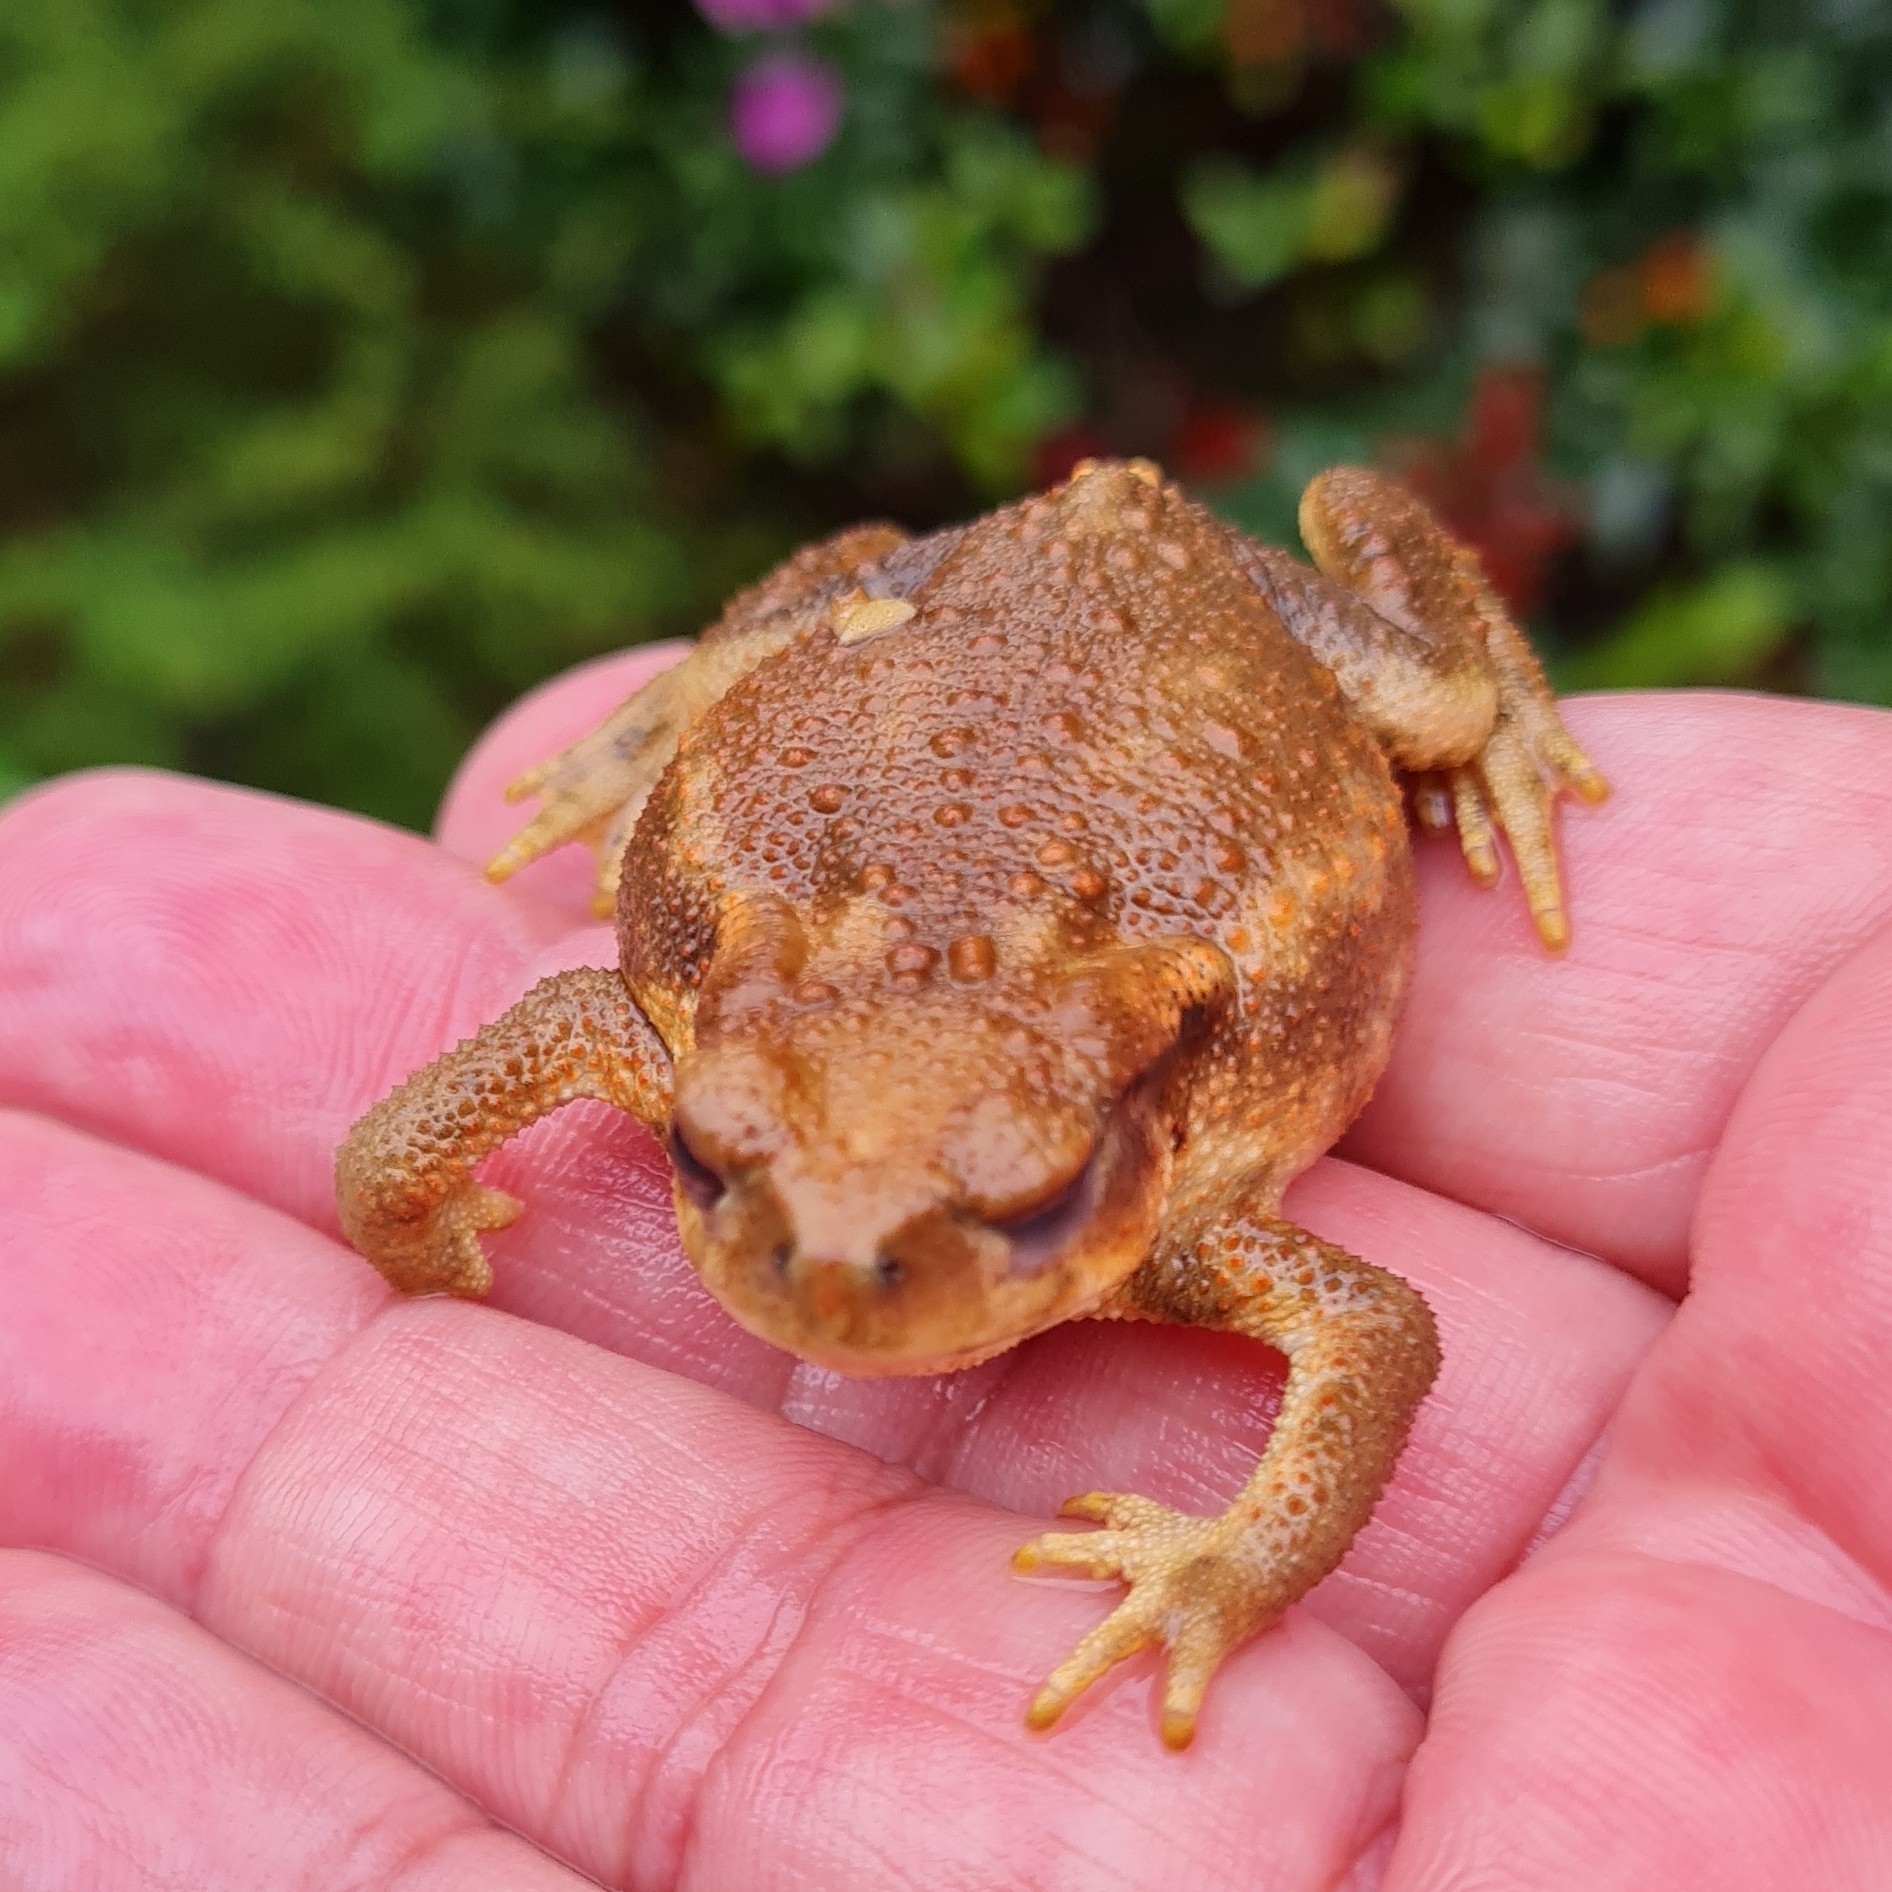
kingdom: Animalia
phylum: Chordata
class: Amphibia
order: Anura
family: Bufonidae
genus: Bufo
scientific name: Bufo spinosus
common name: Western common toad
